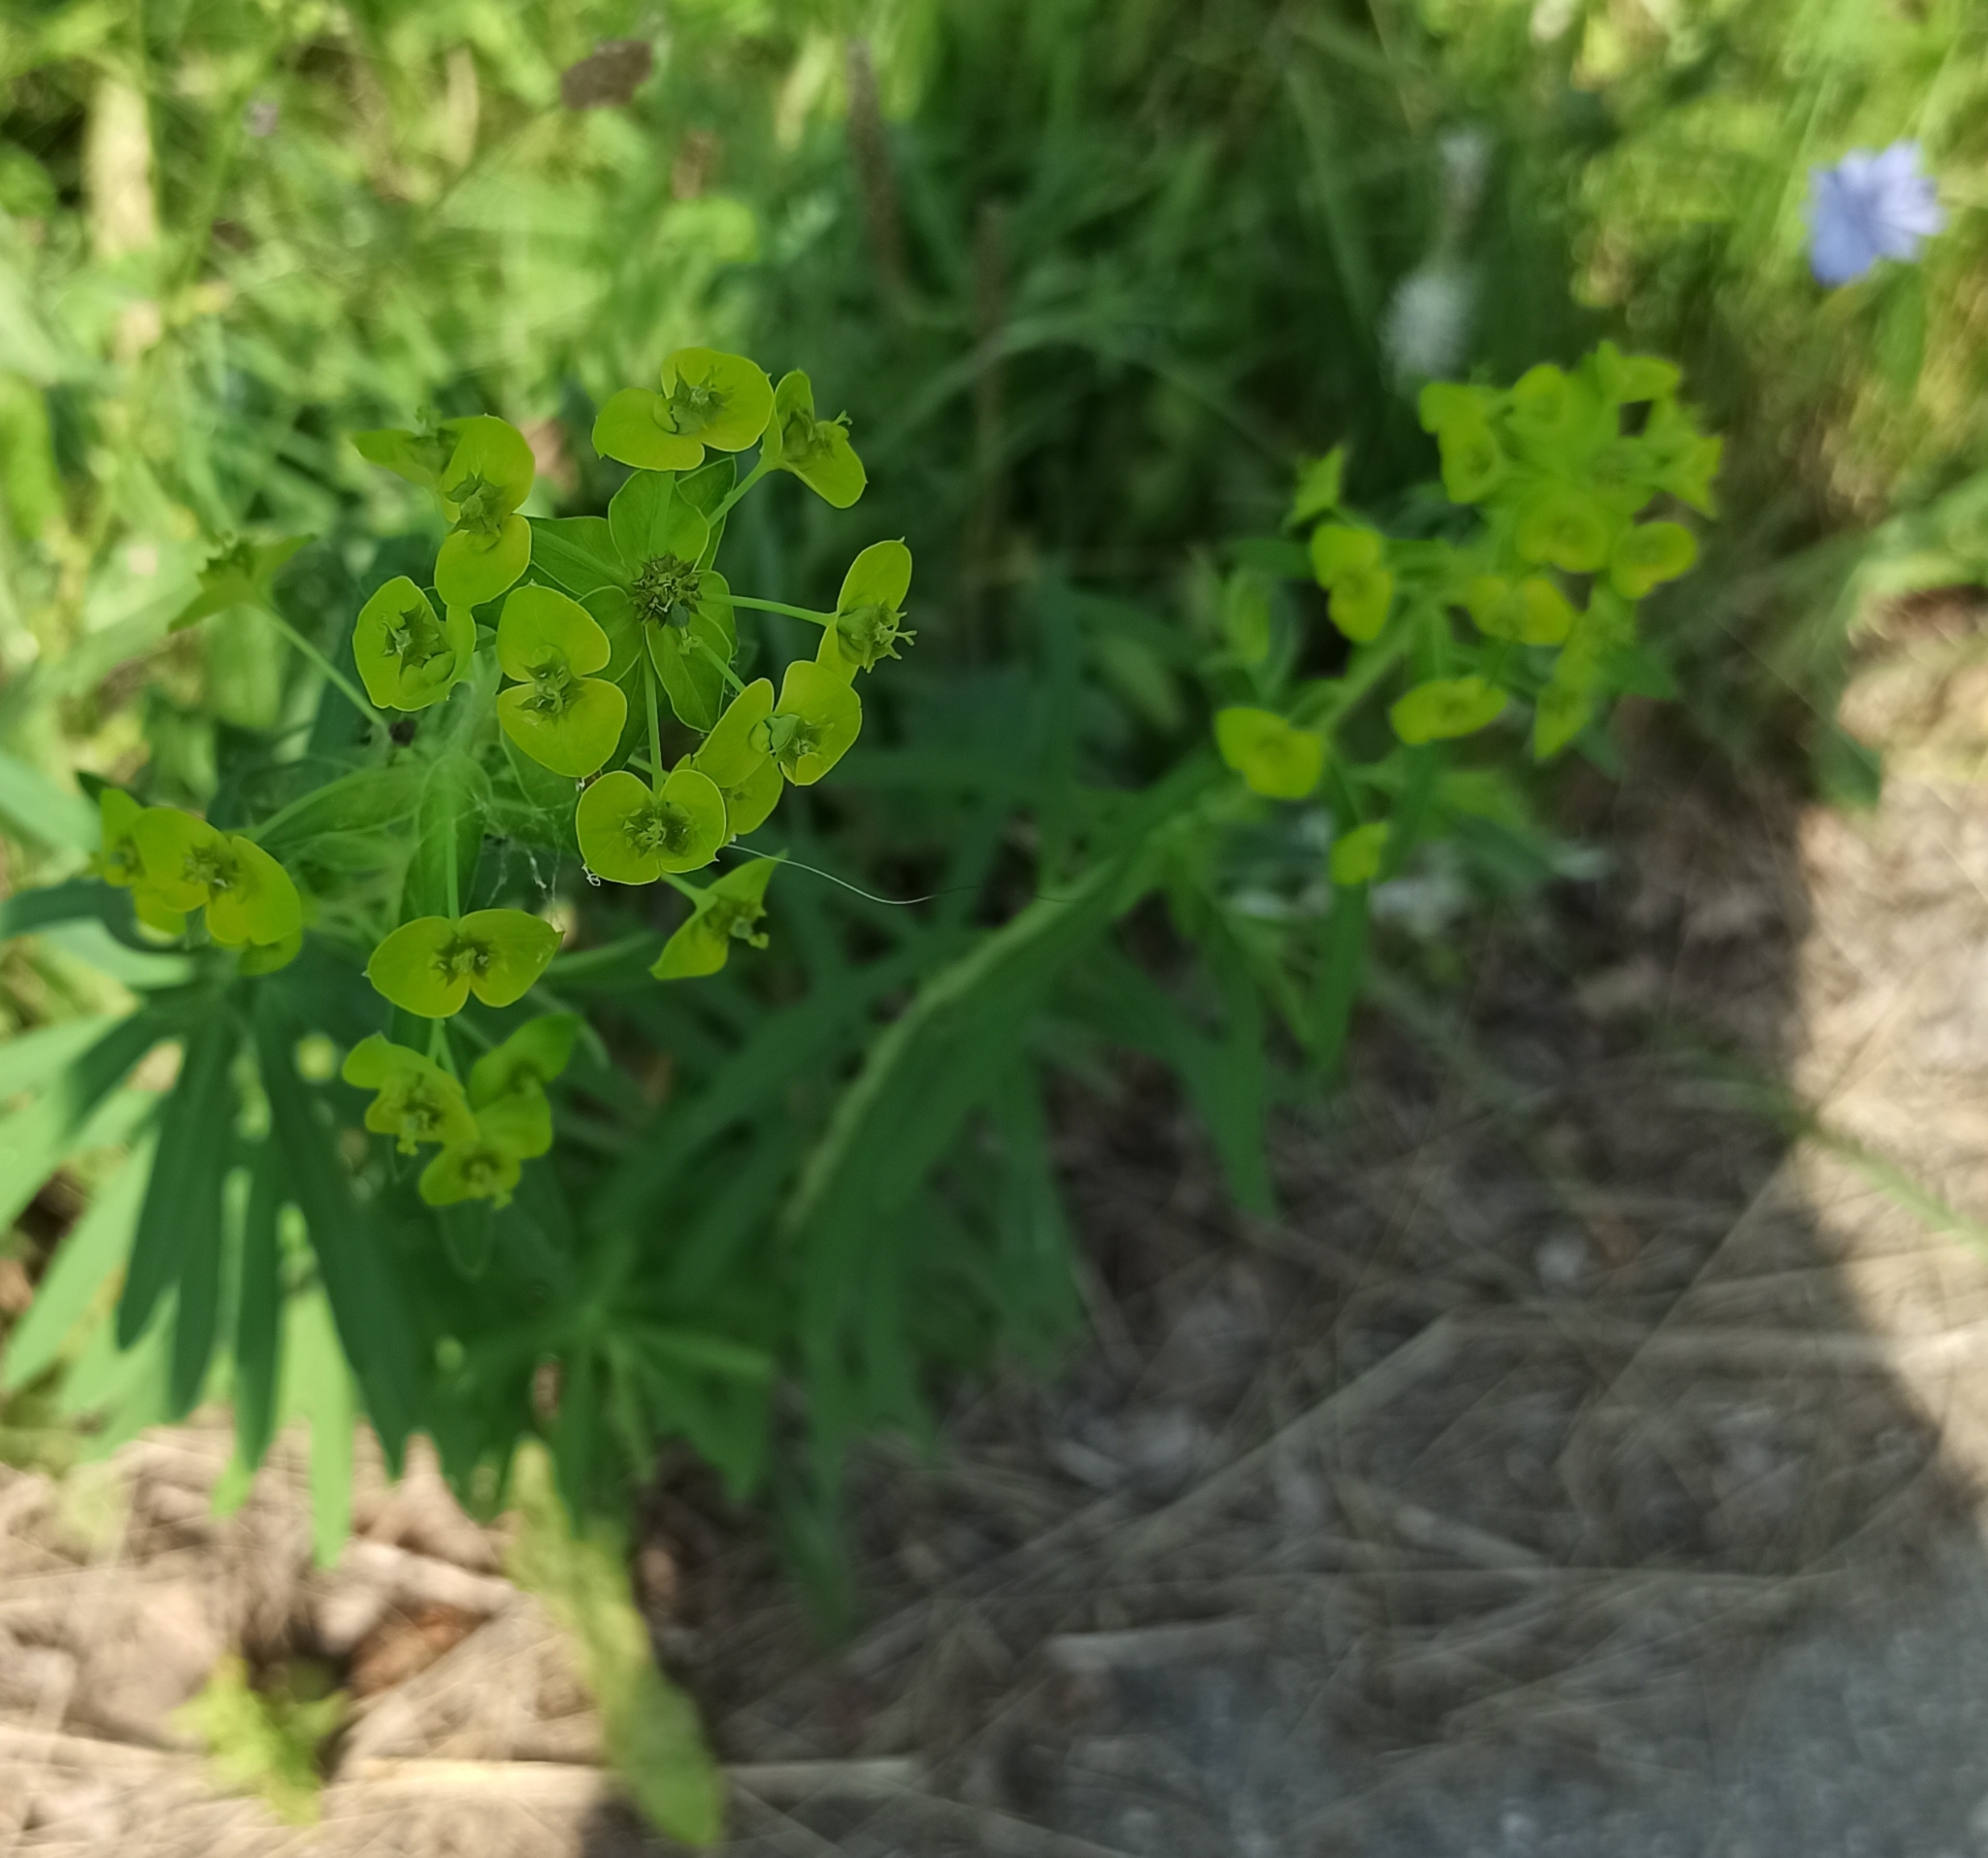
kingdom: Plantae
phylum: Tracheophyta
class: Magnoliopsida
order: Malpighiales
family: Euphorbiaceae
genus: Euphorbia
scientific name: Euphorbia virgata
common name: Leafy spurge
